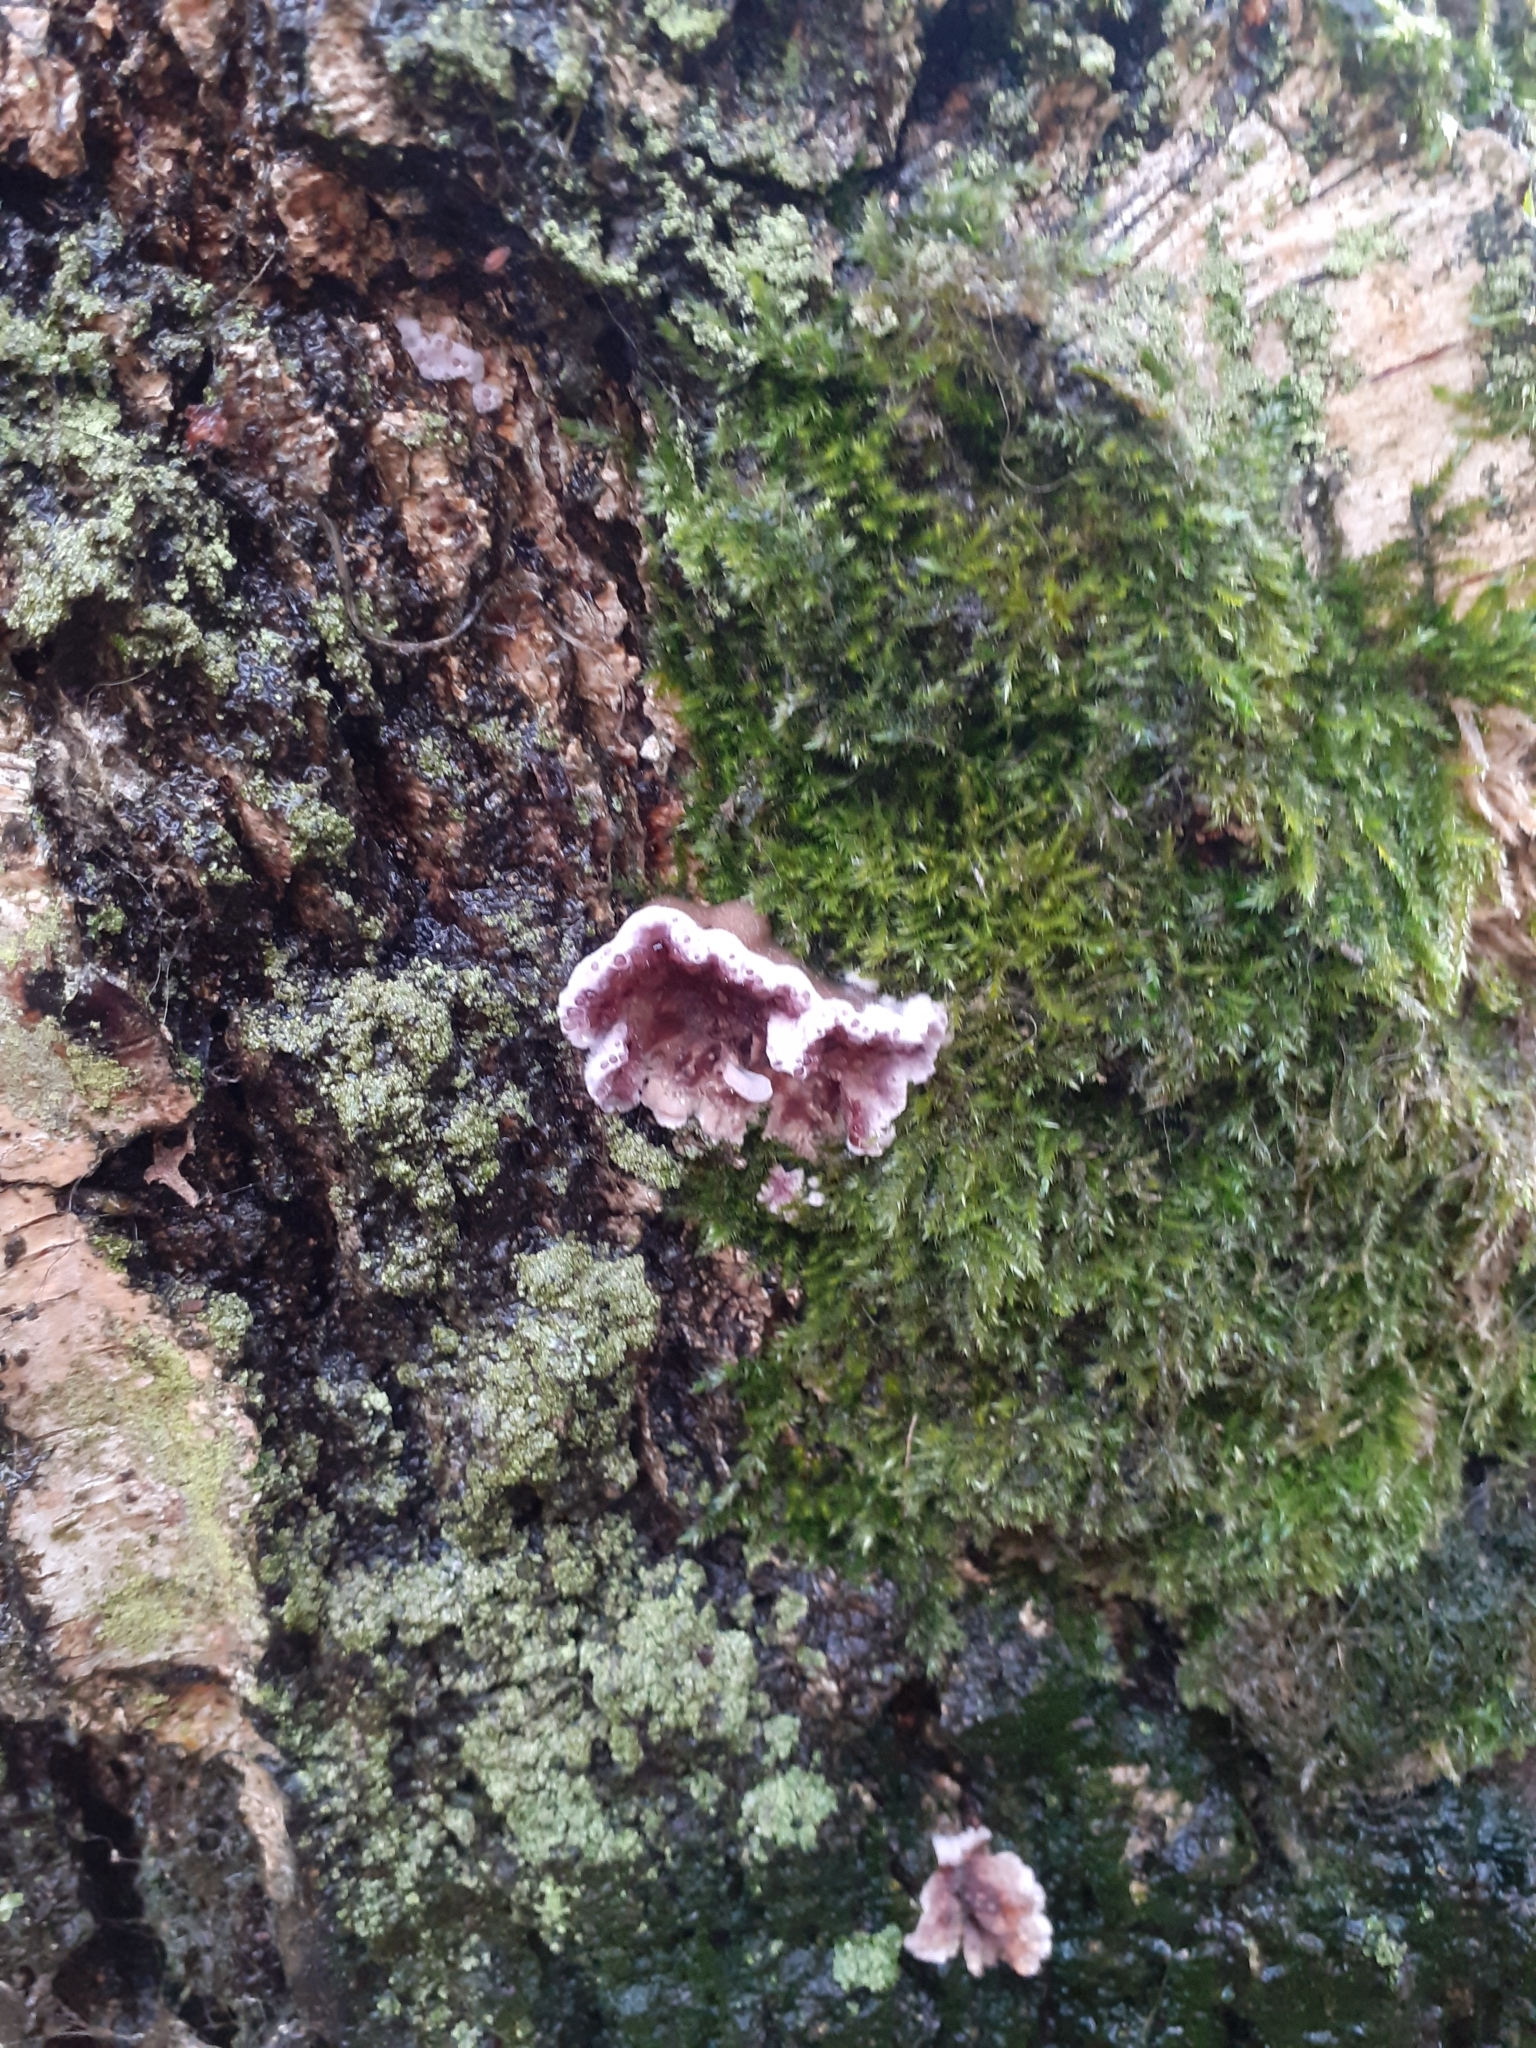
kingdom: Fungi
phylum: Basidiomycota
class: Agaricomycetes
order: Agaricales
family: Cyphellaceae
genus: Chondrostereum
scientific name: Chondrostereum purpureum
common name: Silver leaf disease
